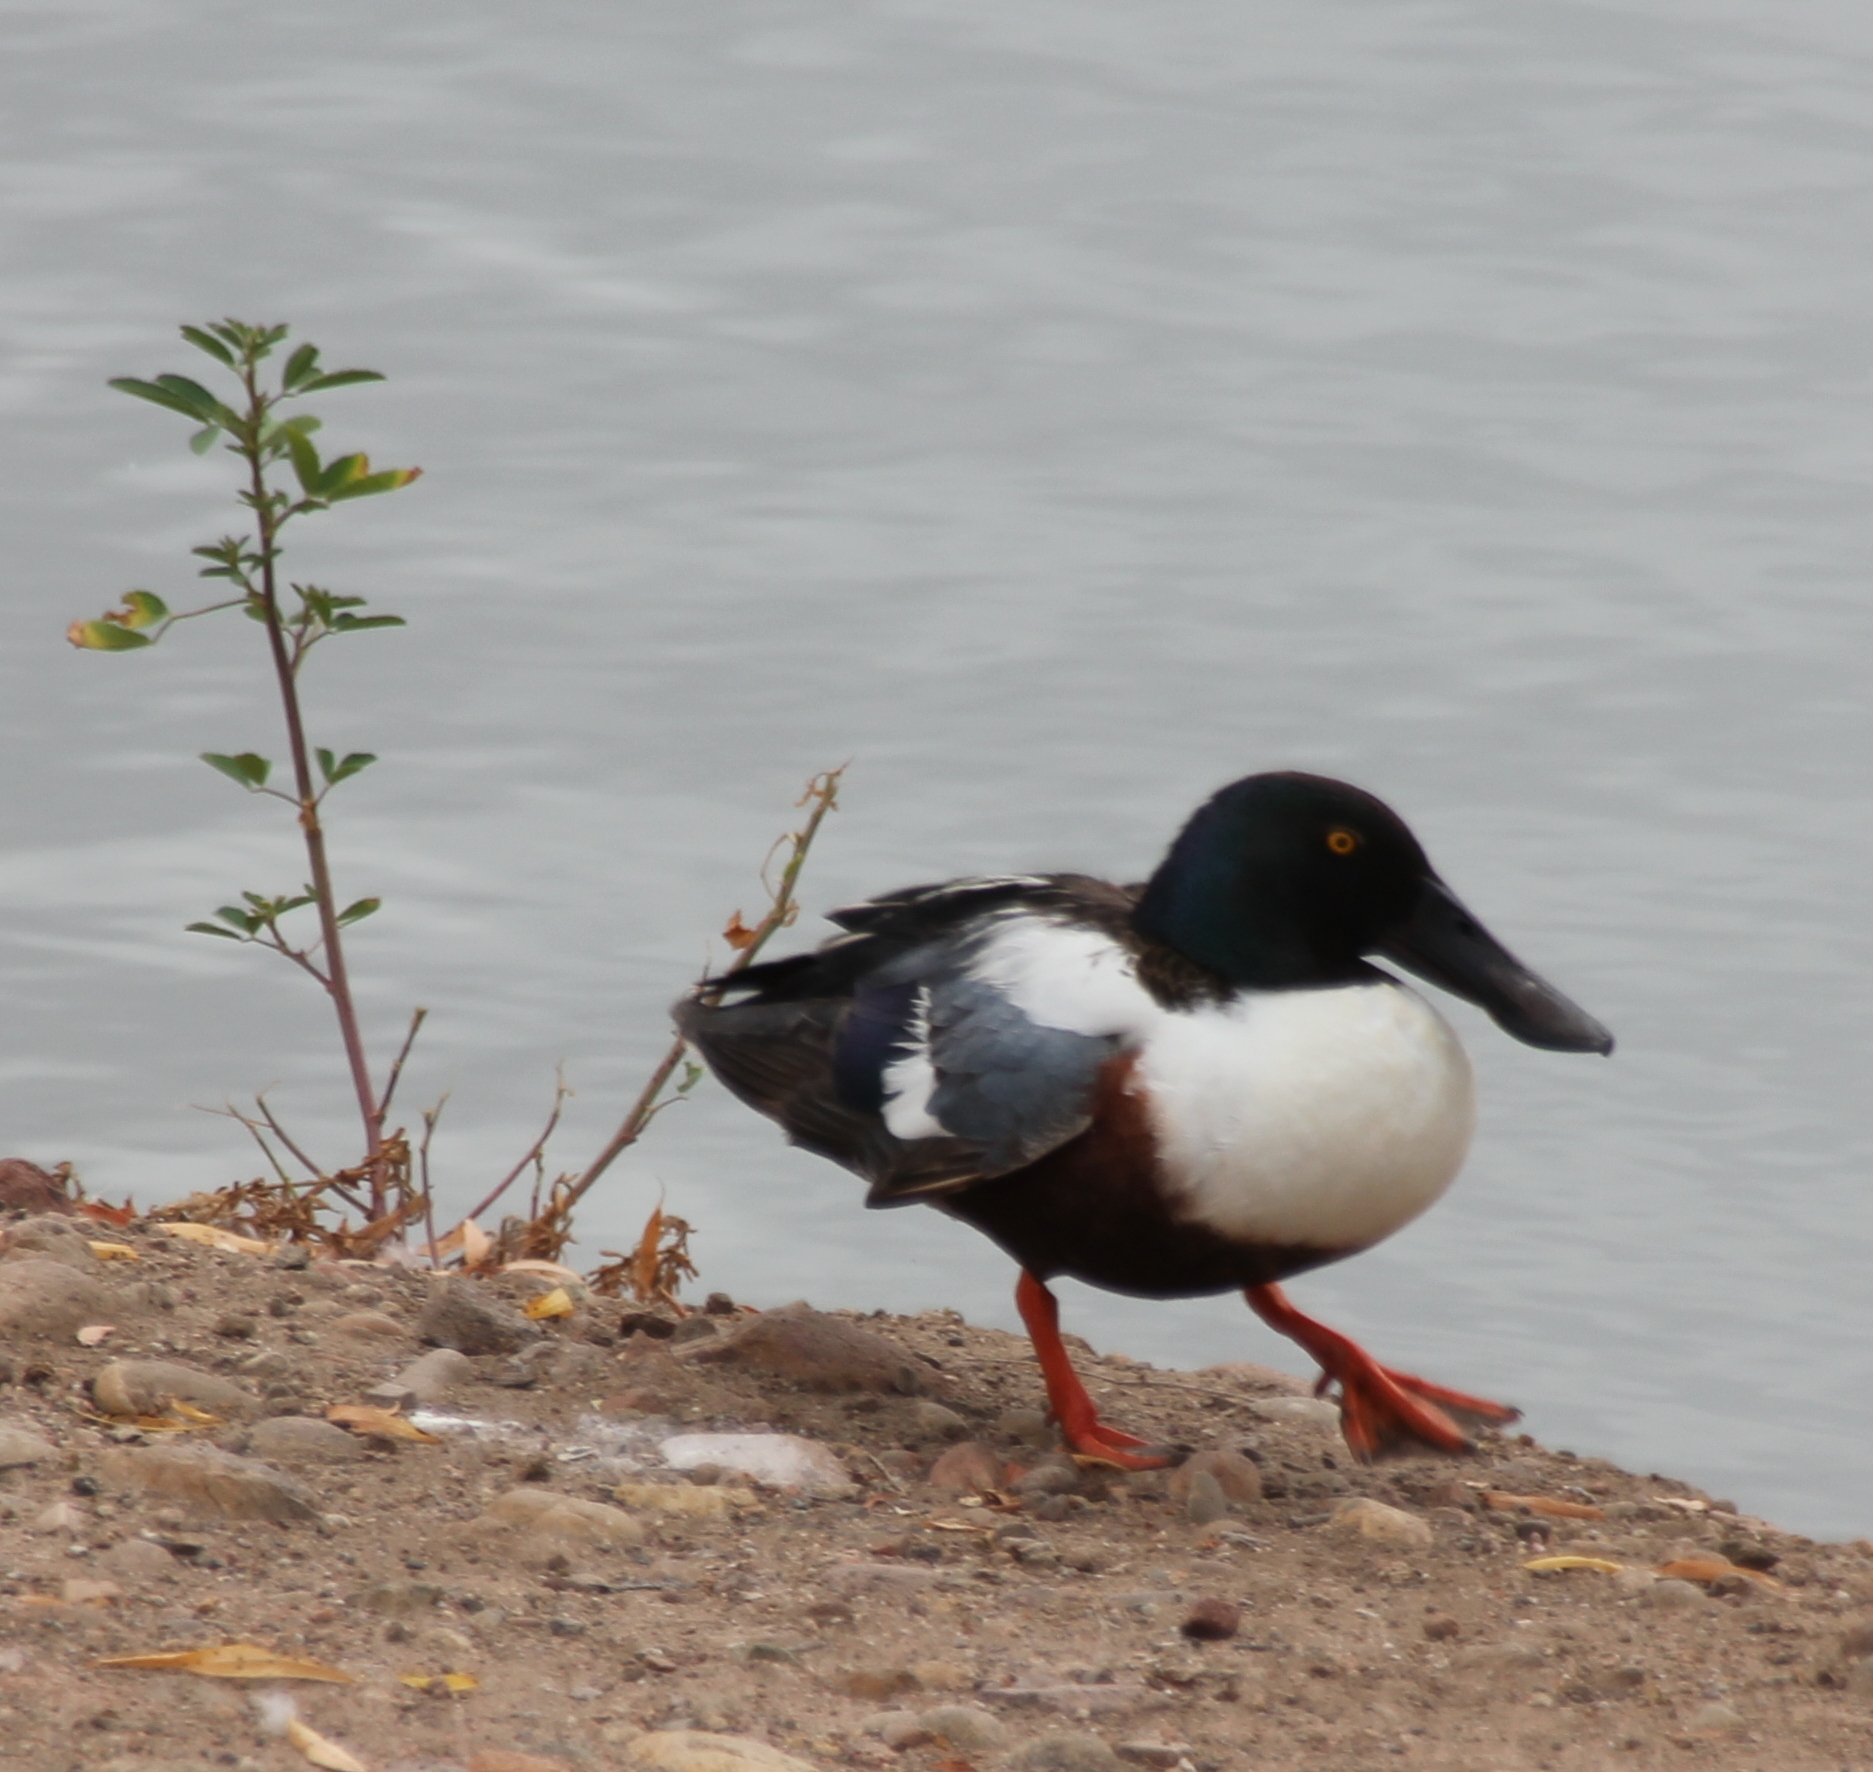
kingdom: Animalia
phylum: Chordata
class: Aves
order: Anseriformes
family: Anatidae
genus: Spatula
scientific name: Spatula clypeata
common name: Northern shoveler
